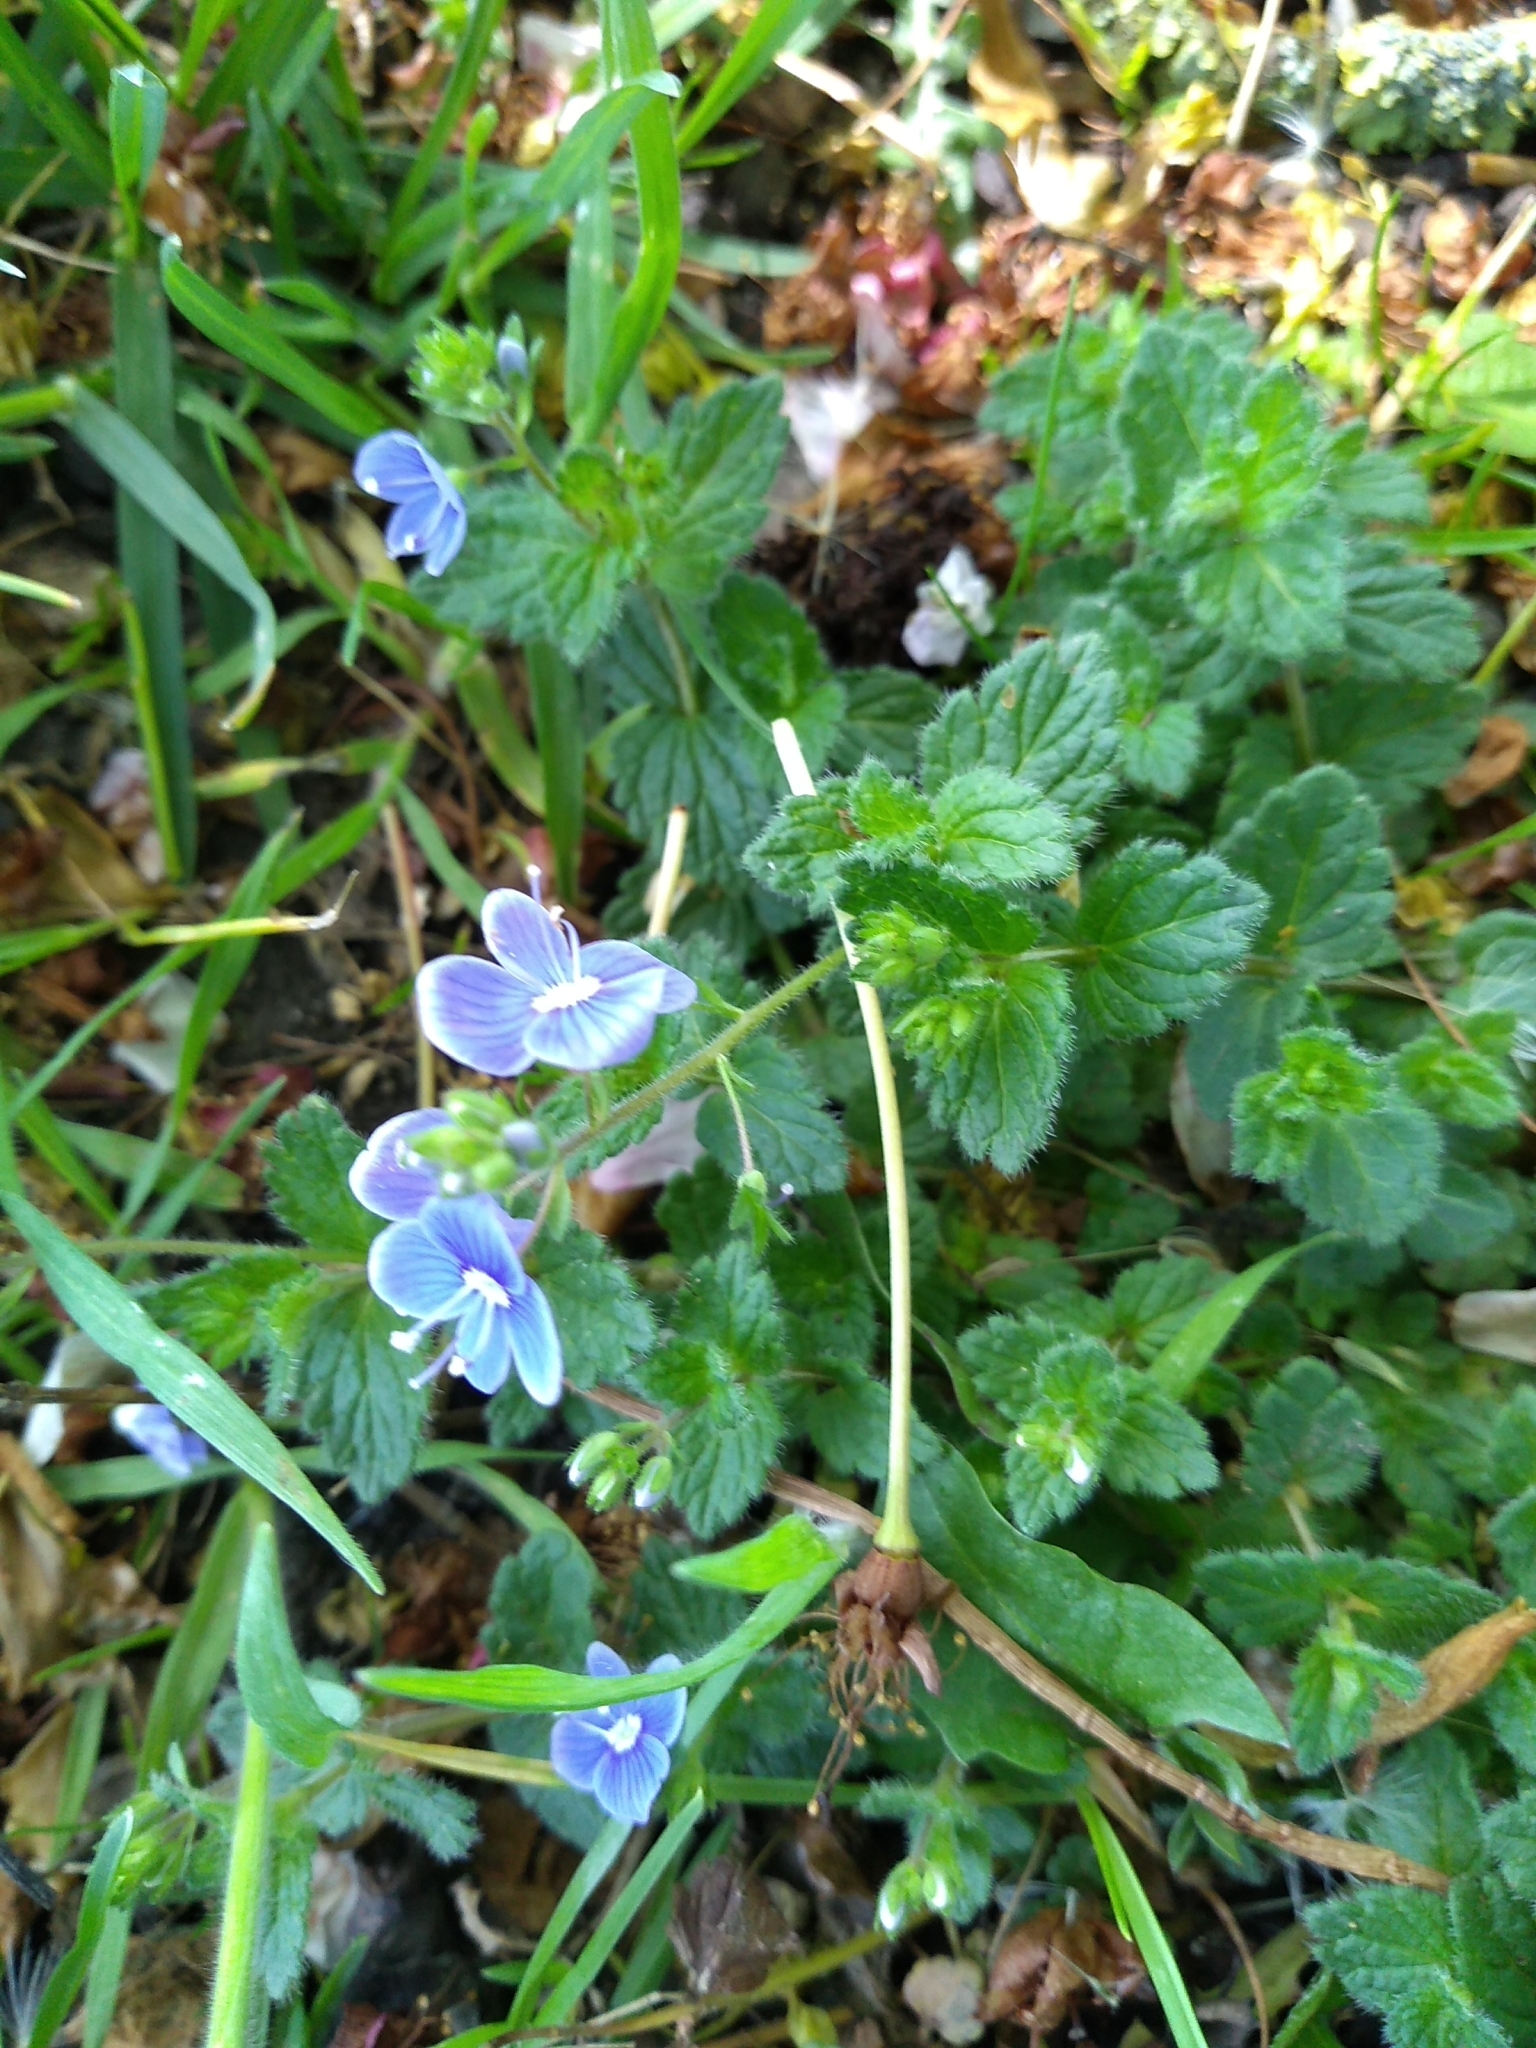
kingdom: Plantae
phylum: Tracheophyta
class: Magnoliopsida
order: Lamiales
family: Plantaginaceae
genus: Veronica
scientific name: Veronica chamaedrys
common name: Germander speedwell
